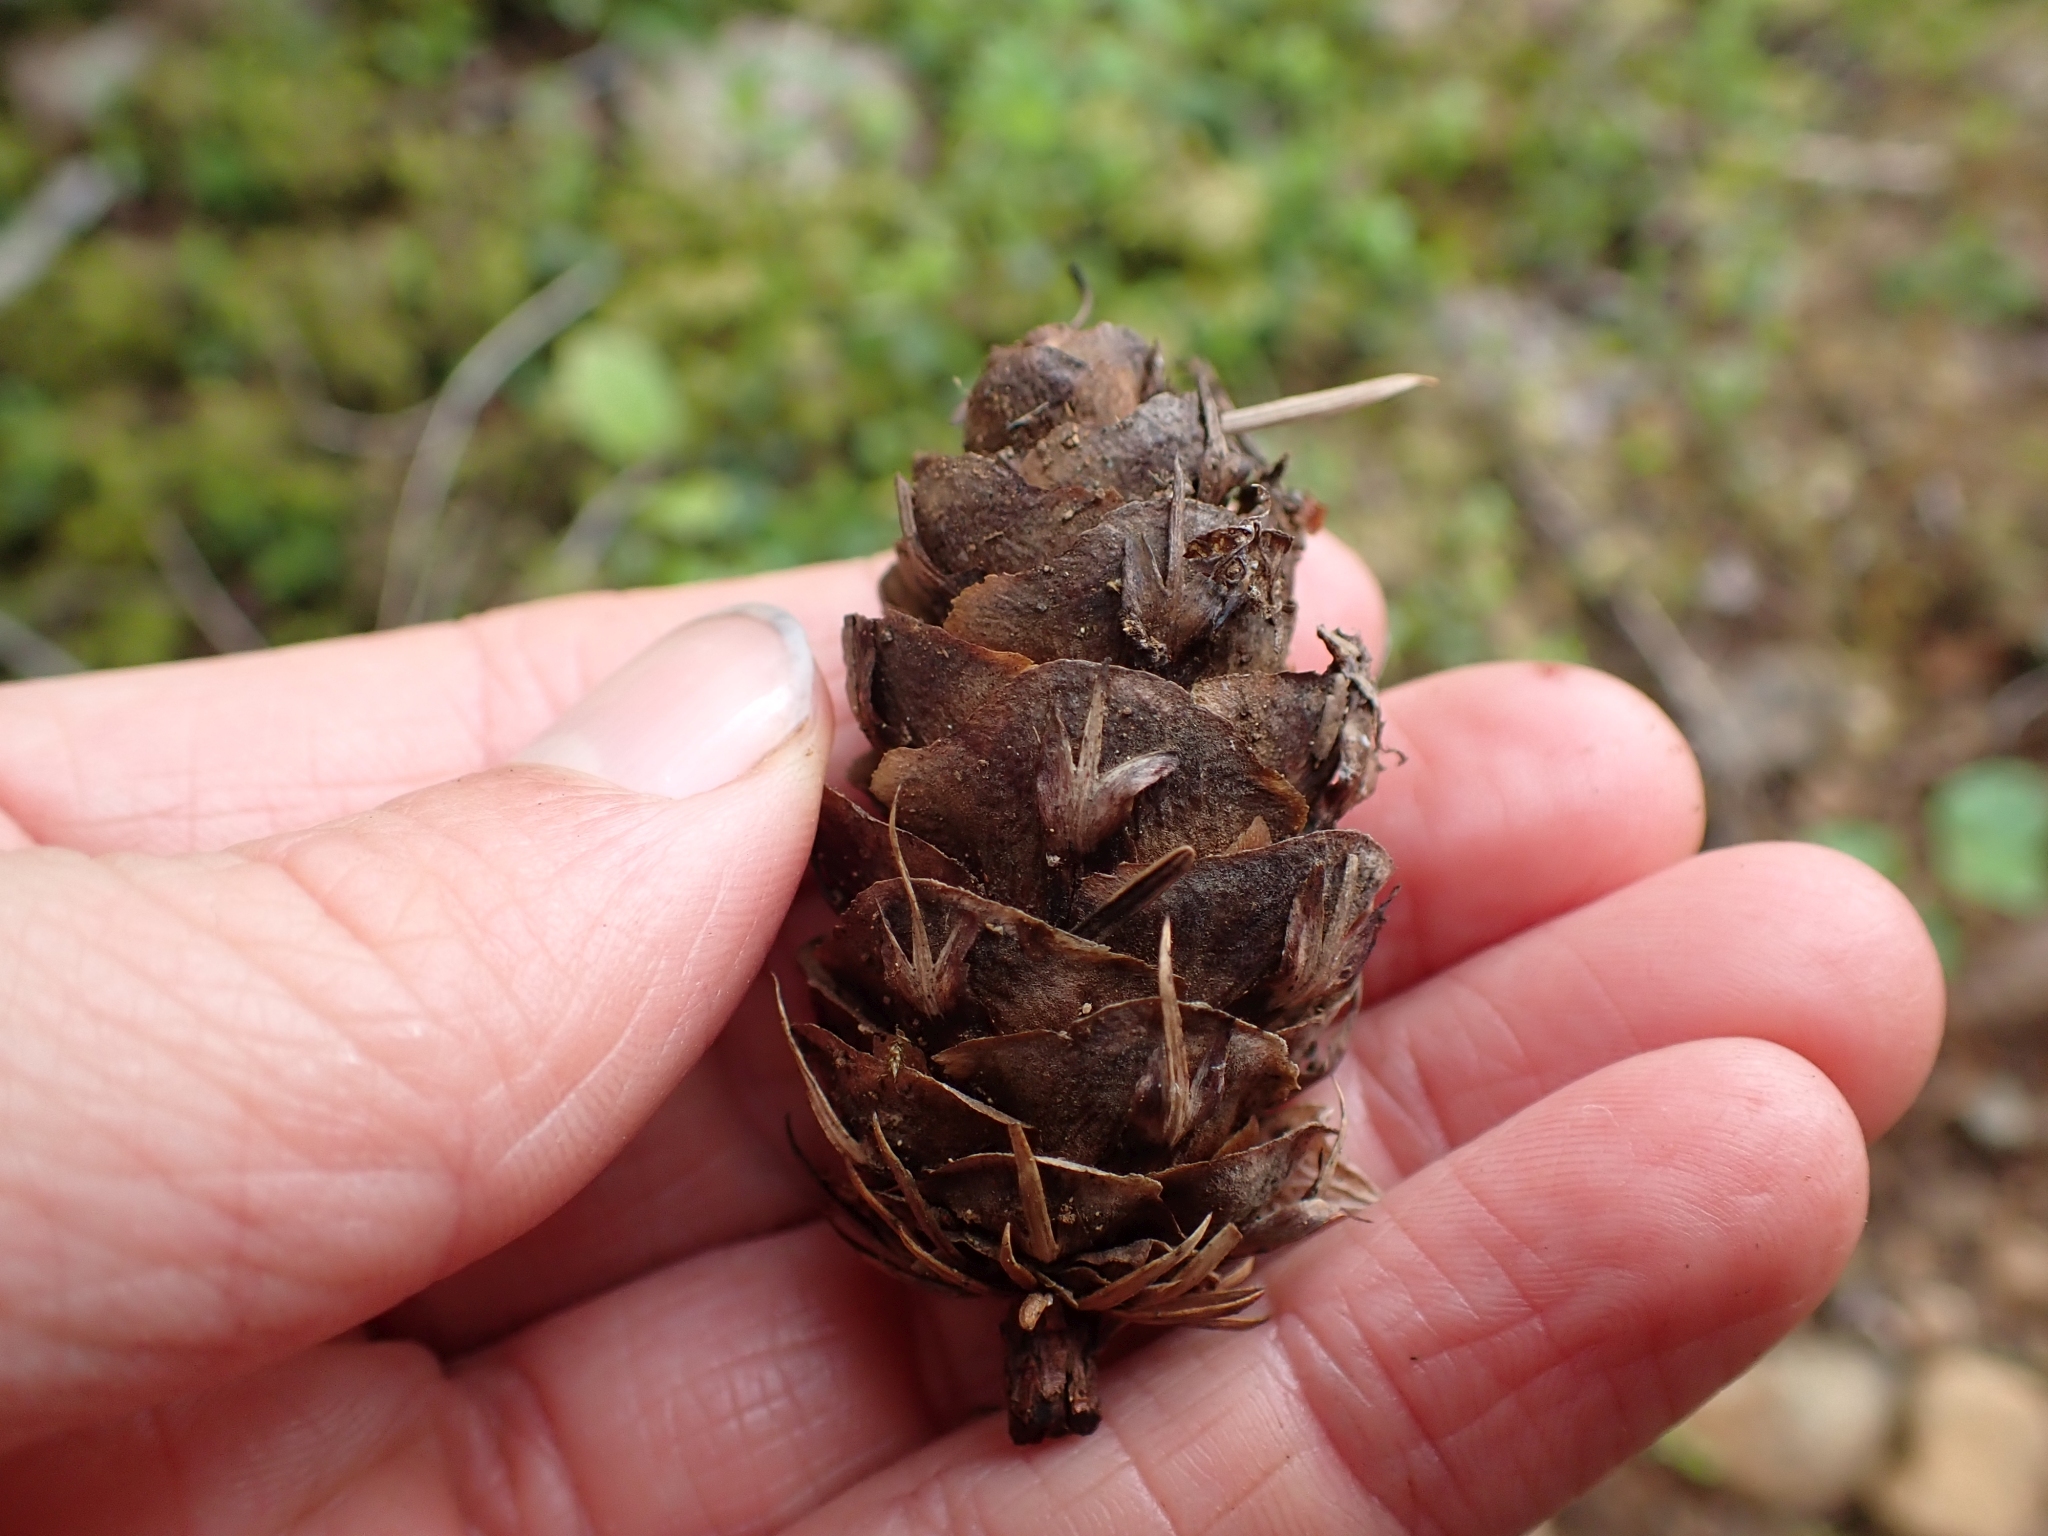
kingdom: Plantae
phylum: Tracheophyta
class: Pinopsida
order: Pinales
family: Pinaceae
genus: Pseudotsuga
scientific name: Pseudotsuga menziesii
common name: Douglas fir
